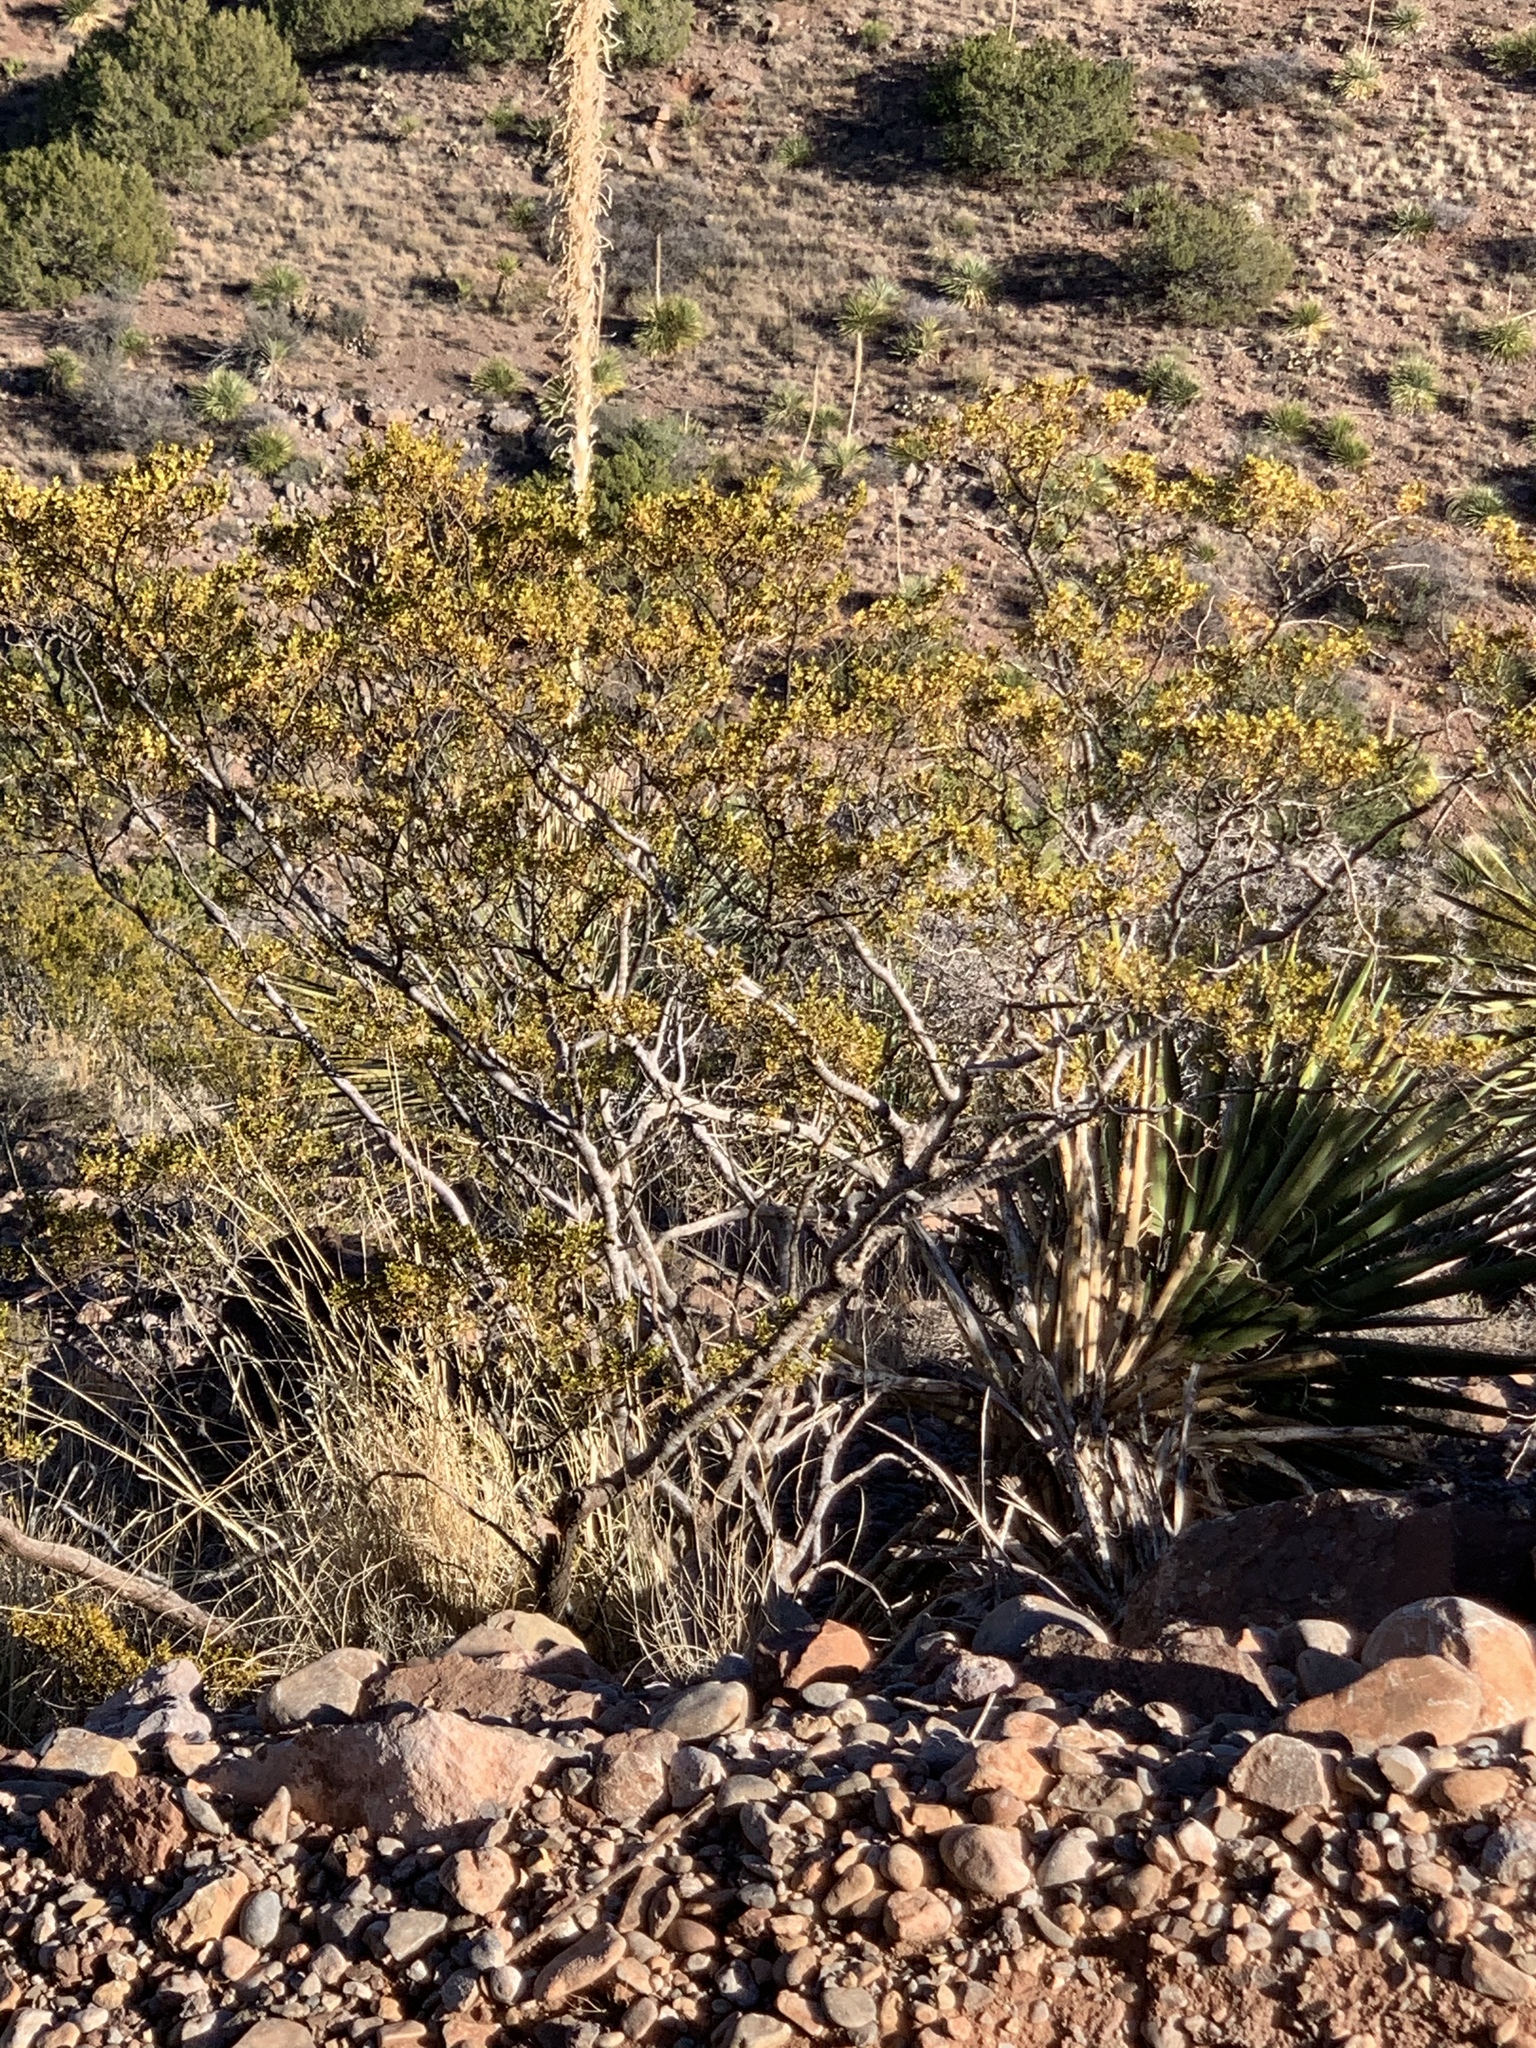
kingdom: Plantae
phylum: Tracheophyta
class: Magnoliopsida
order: Zygophyllales
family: Zygophyllaceae
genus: Larrea
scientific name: Larrea tridentata
